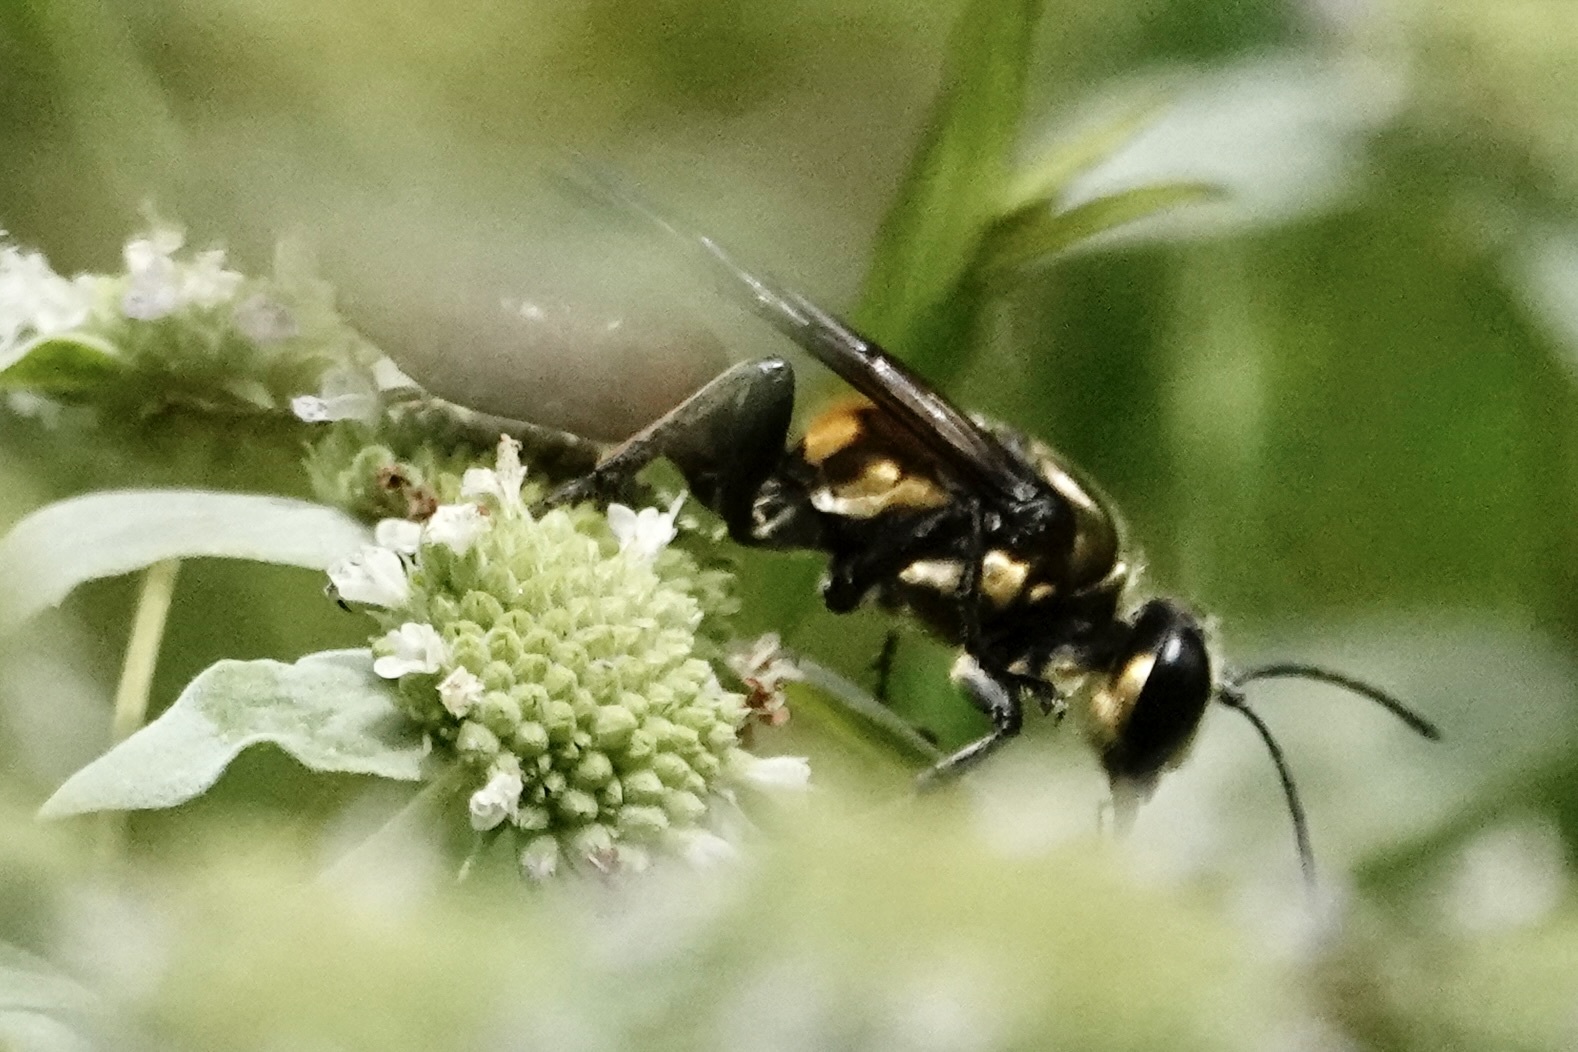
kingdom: Animalia
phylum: Arthropoda
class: Insecta
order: Hymenoptera
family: Sphecidae
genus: Sphex
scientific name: Sphex habenus
